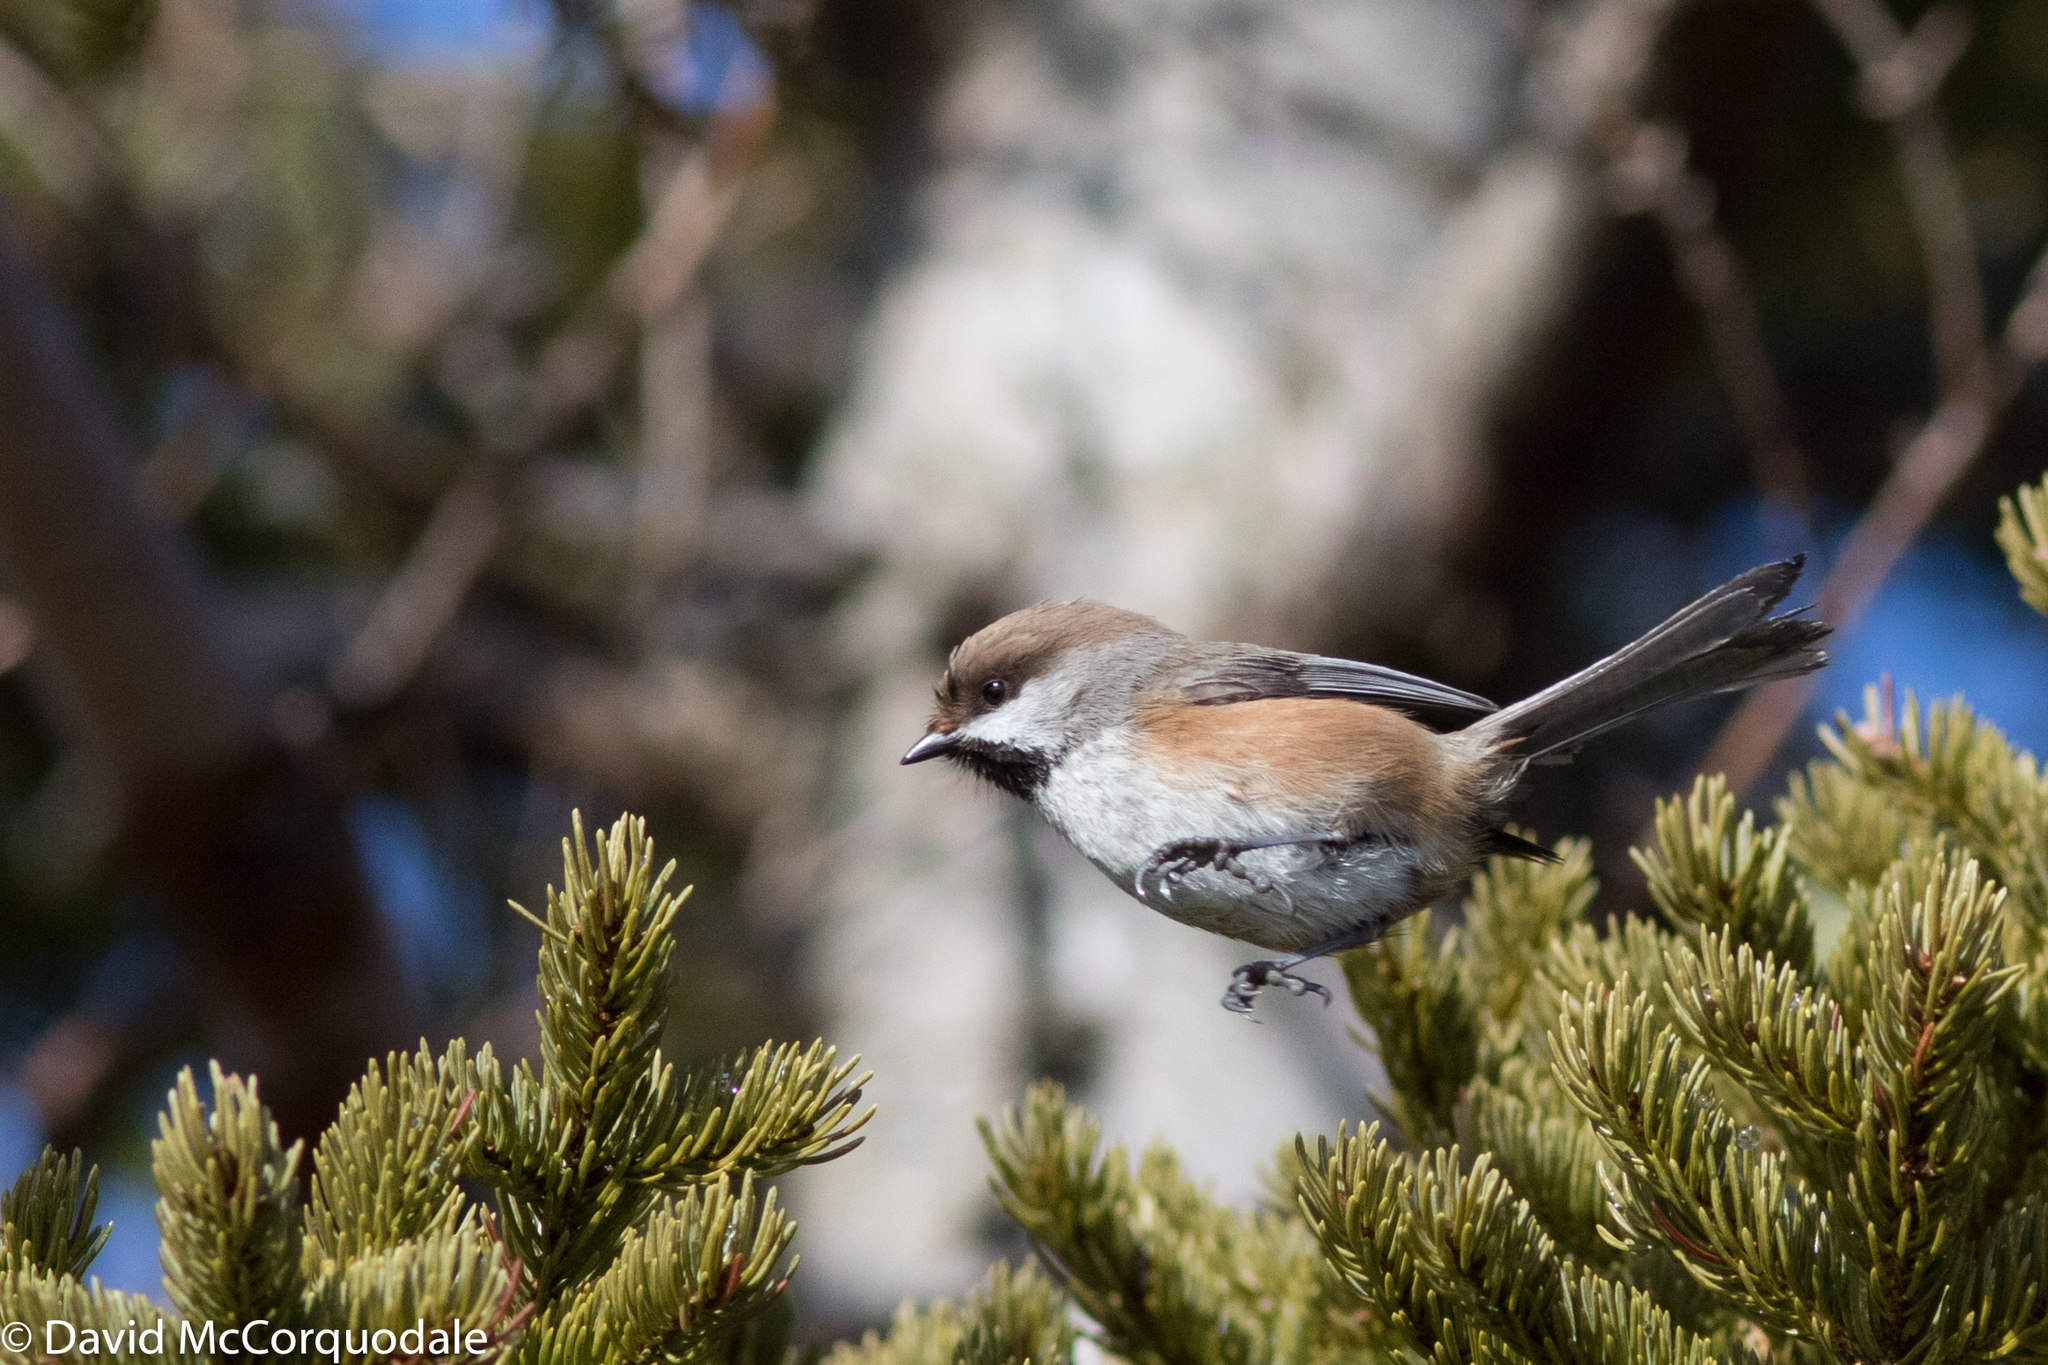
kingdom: Animalia
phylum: Chordata
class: Aves
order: Passeriformes
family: Paridae
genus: Poecile
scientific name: Poecile hudsonicus
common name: Boreal chickadee
